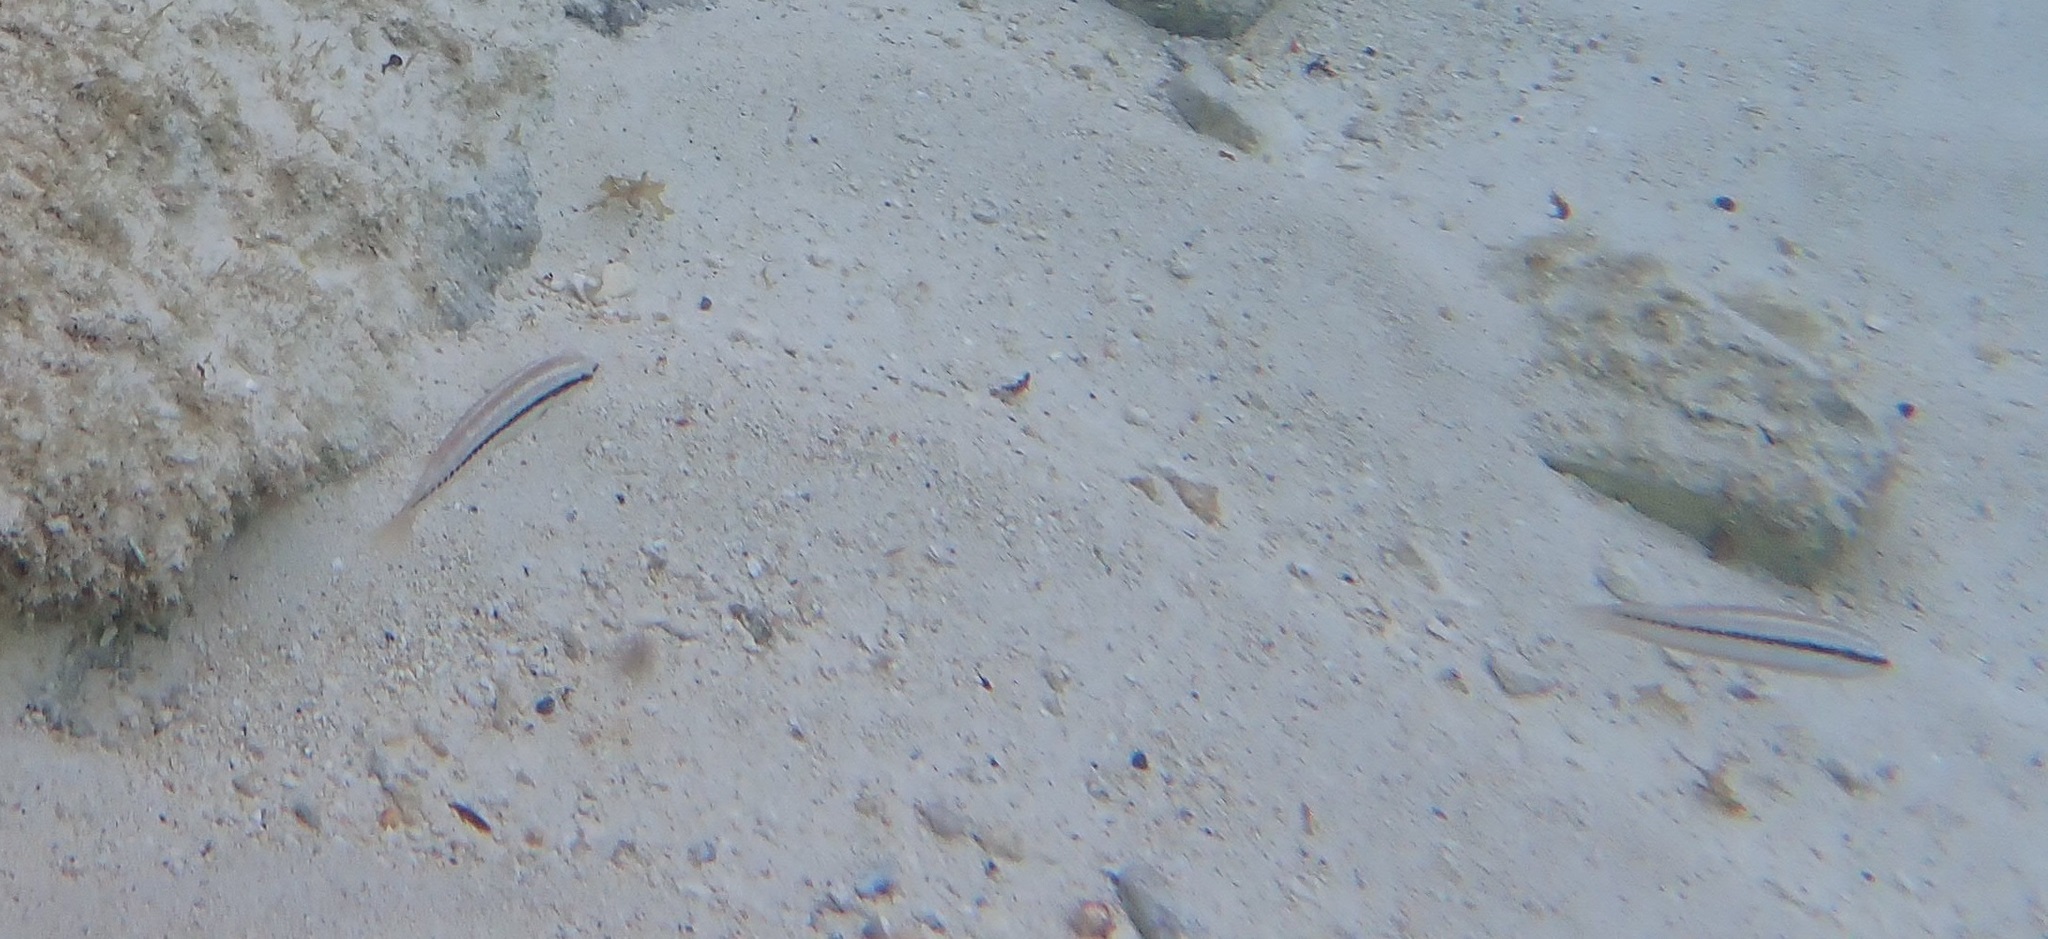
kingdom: Animalia
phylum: Chordata
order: Perciformes
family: Labridae
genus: Halichoeres
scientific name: Halichoeres bivittatus
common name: Slippery dick
